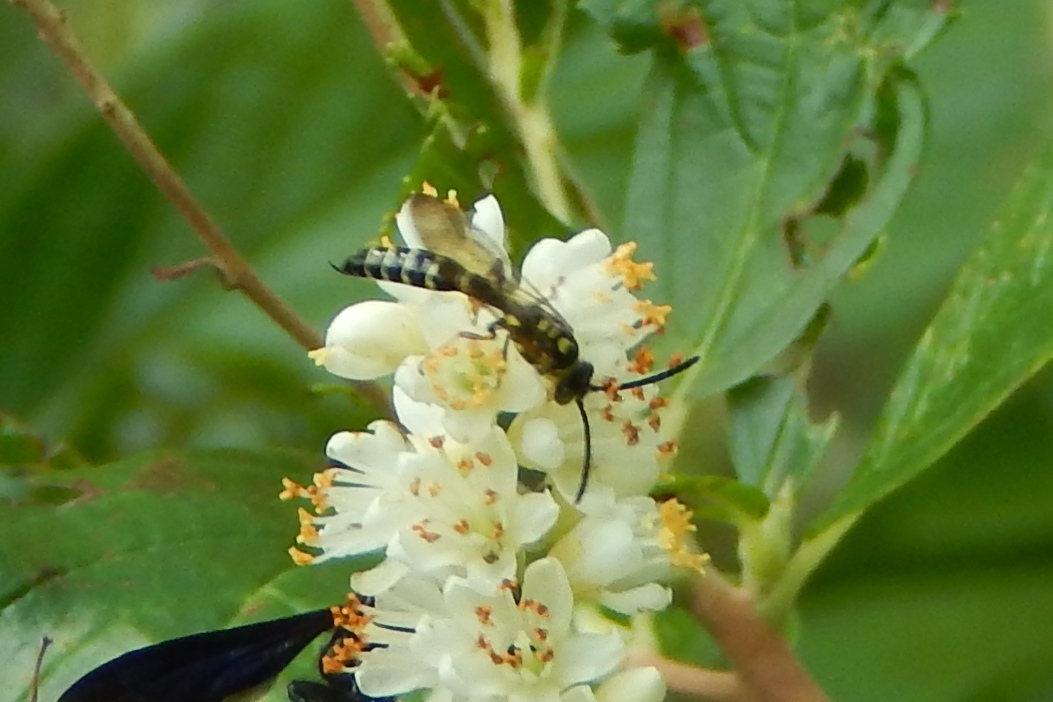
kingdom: Animalia
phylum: Arthropoda
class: Insecta
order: Hymenoptera
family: Tiphiidae
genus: Myzinum
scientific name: Myzinum
